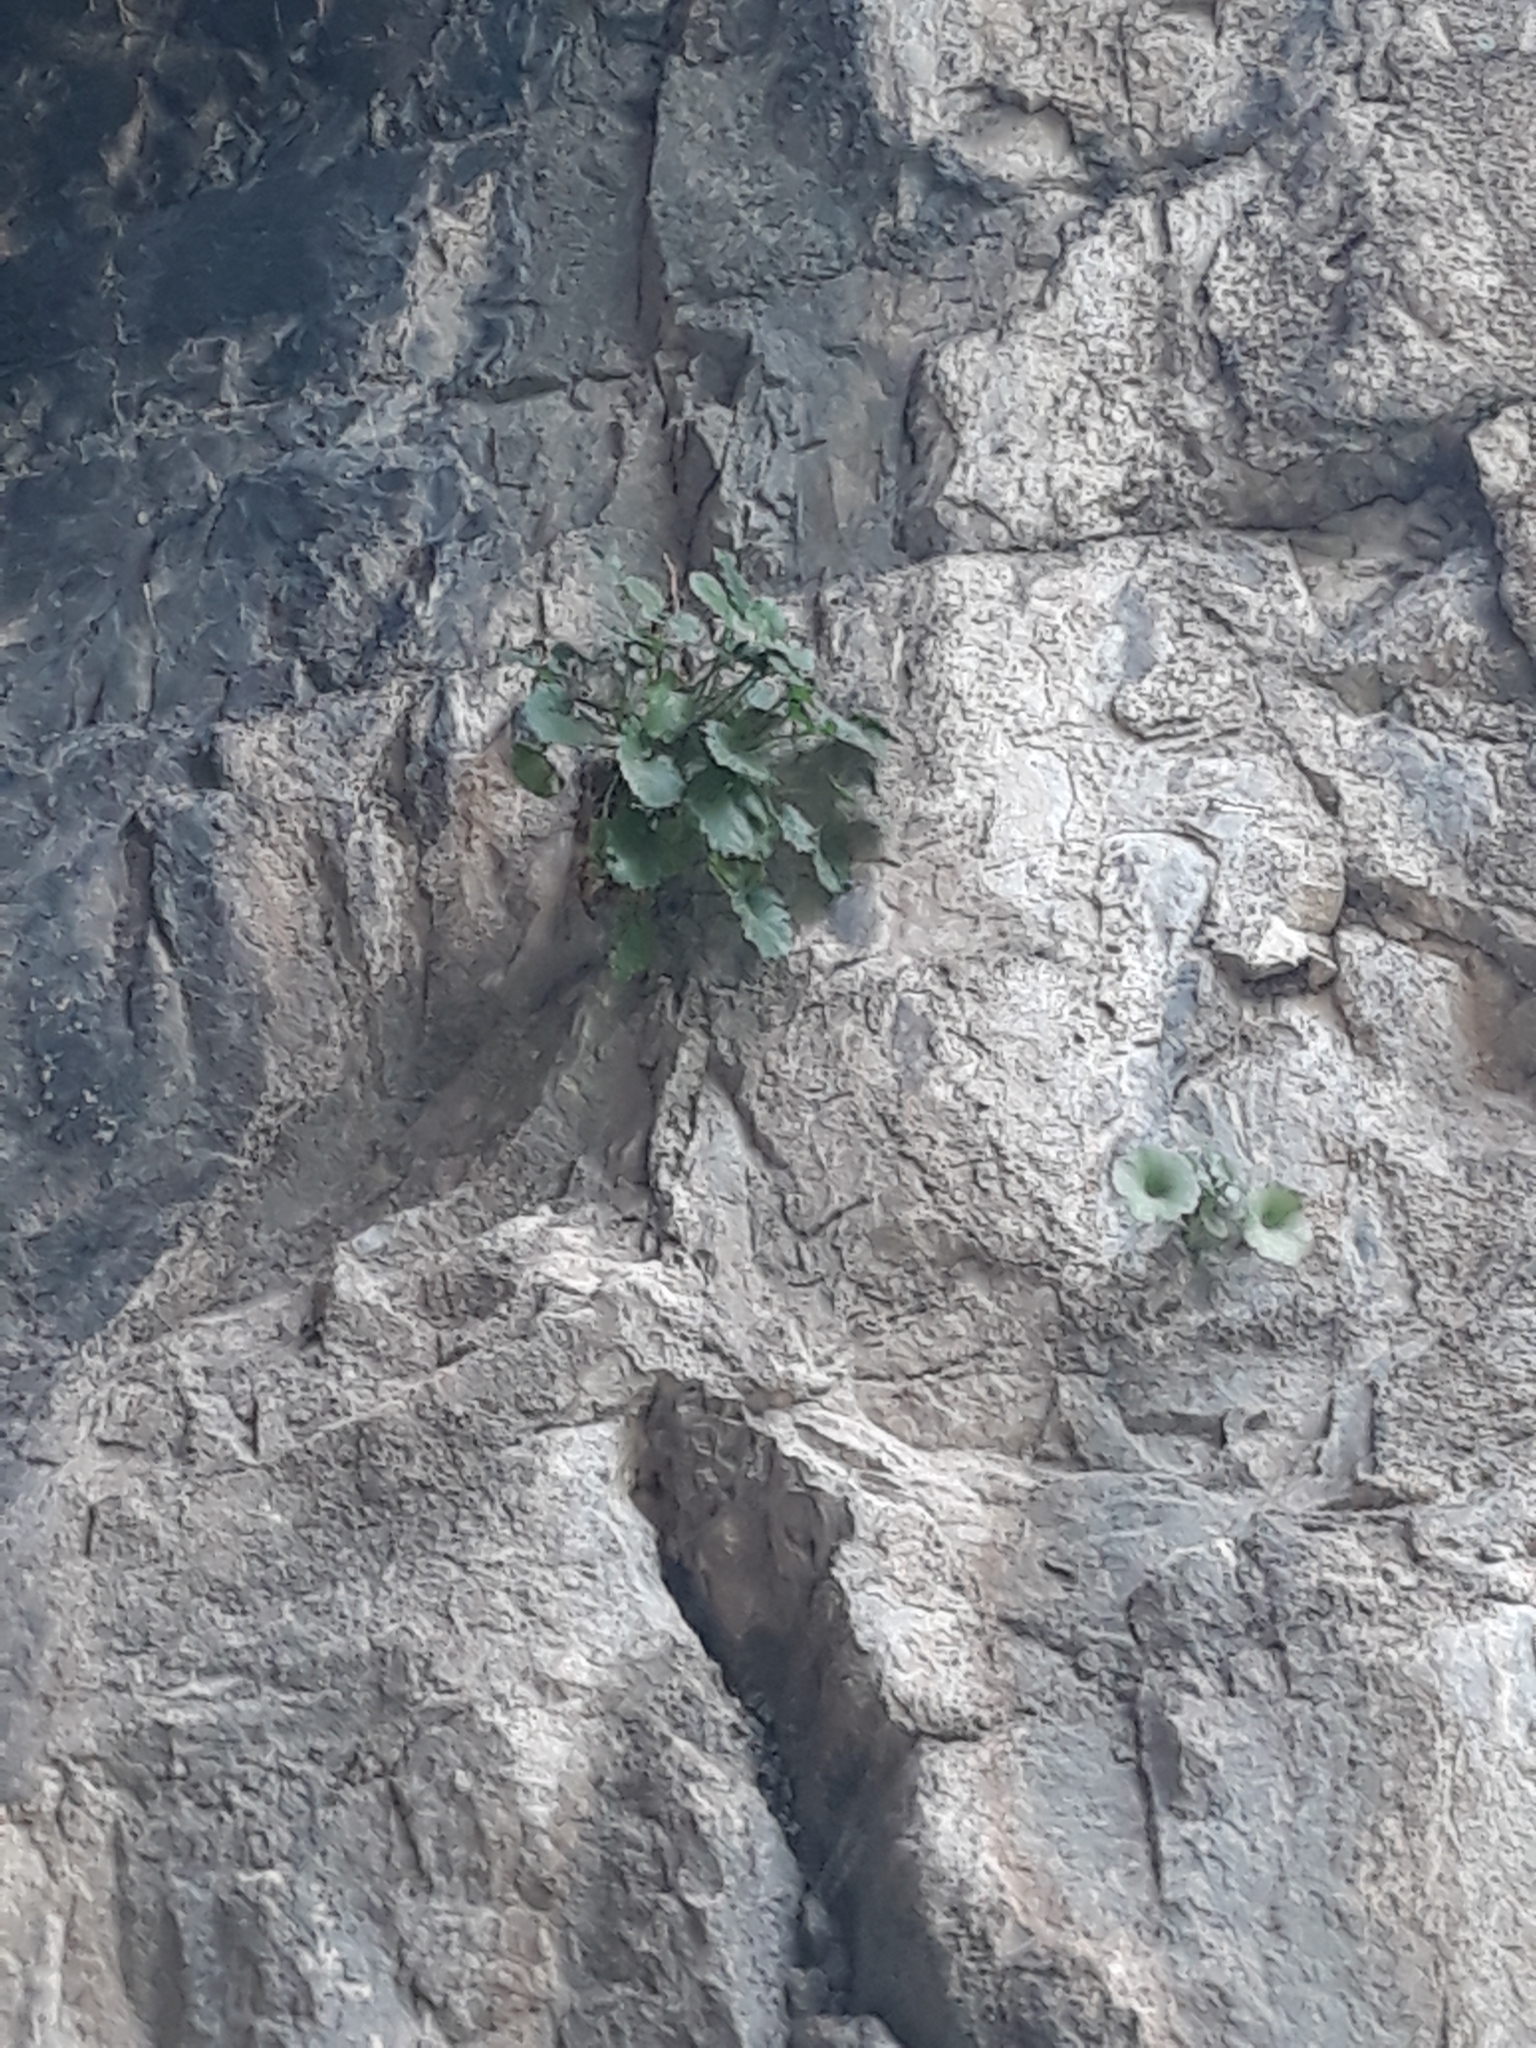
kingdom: Plantae
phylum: Tracheophyta
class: Magnoliopsida
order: Lamiales
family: Scrophulariaceae
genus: Scrophularia
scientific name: Scrophularia laevigata
